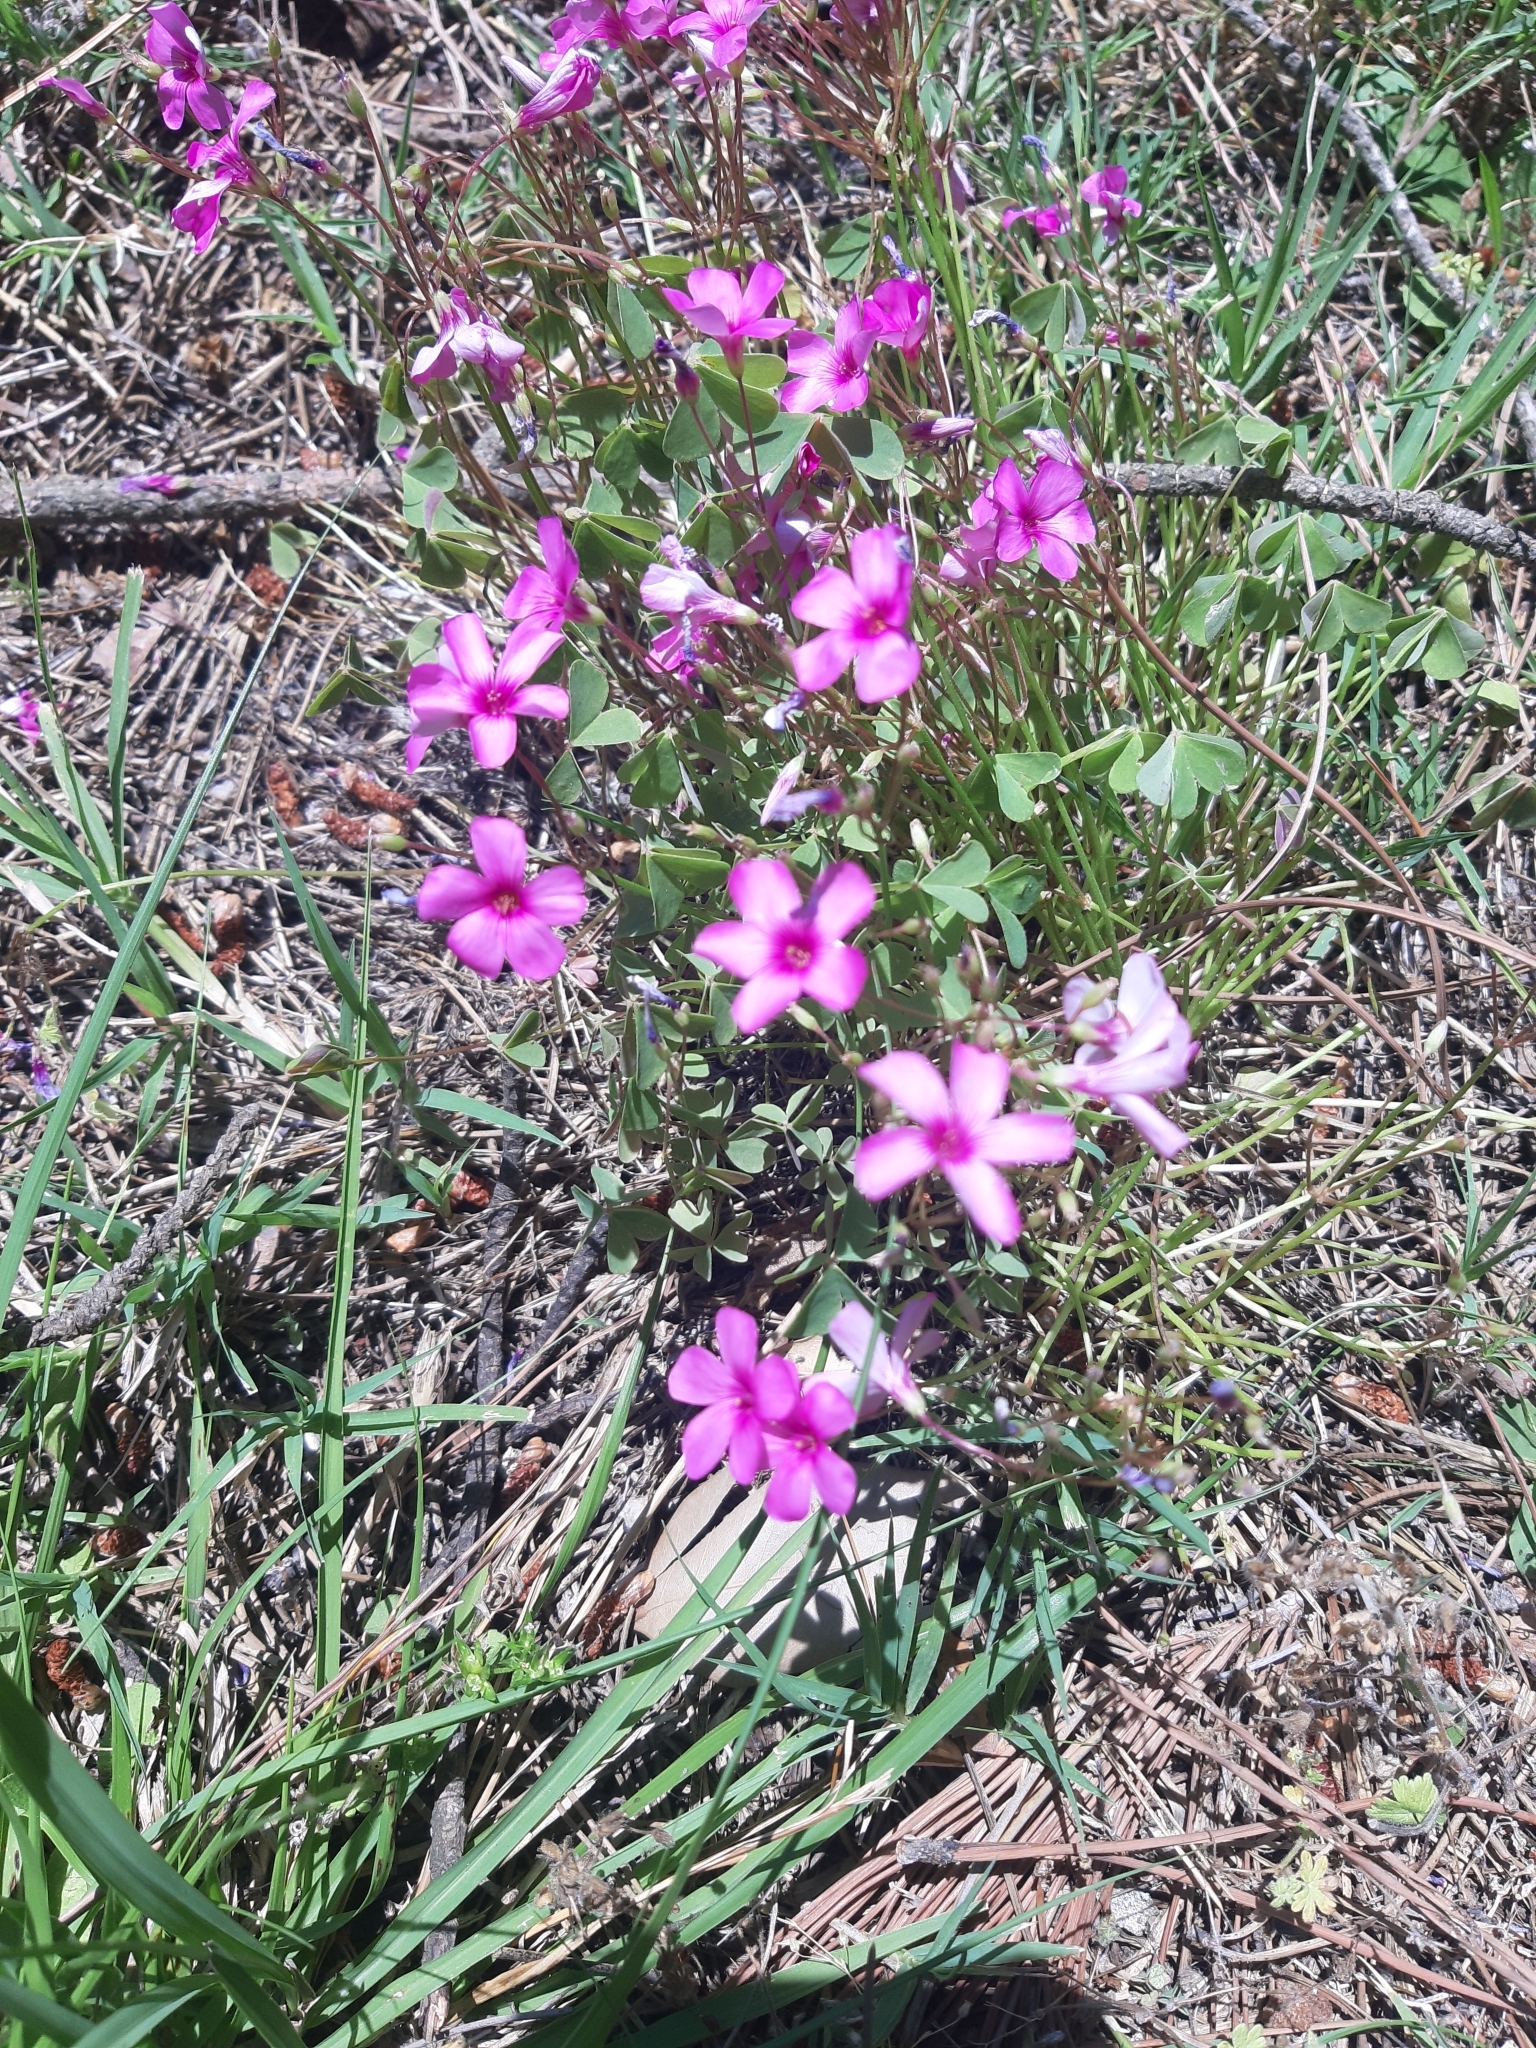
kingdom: Plantae
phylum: Tracheophyta
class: Magnoliopsida
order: Oxalidales
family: Oxalidaceae
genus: Oxalis
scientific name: Oxalis articulata
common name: Pink-sorrel
